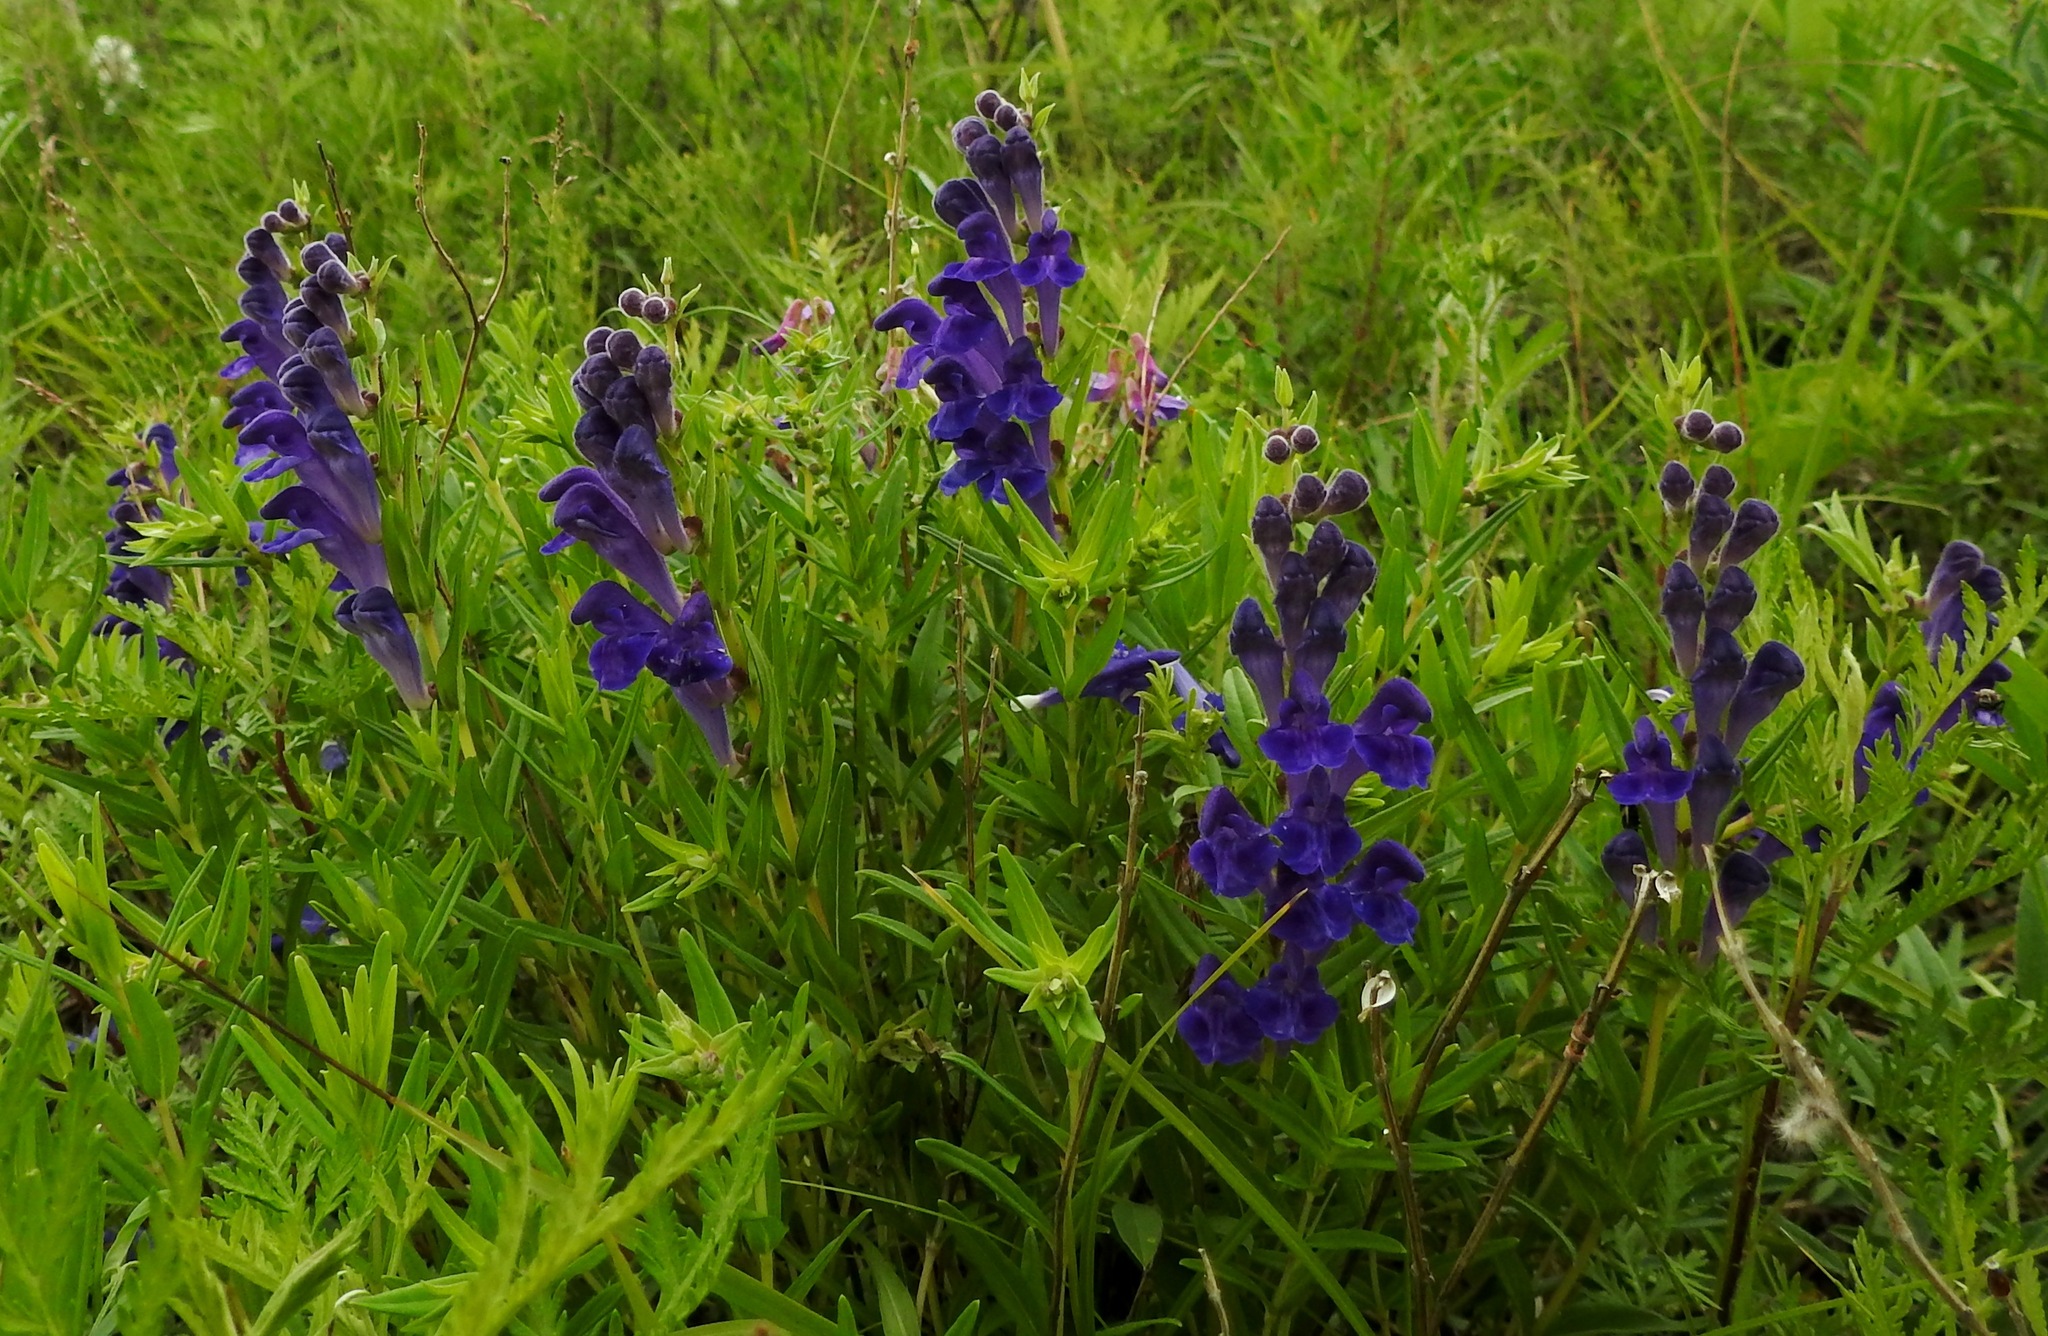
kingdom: Plantae
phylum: Tracheophyta
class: Magnoliopsida
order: Lamiales
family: Lamiaceae
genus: Scutellaria
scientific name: Scutellaria baicalensis
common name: Baikal skullcap
